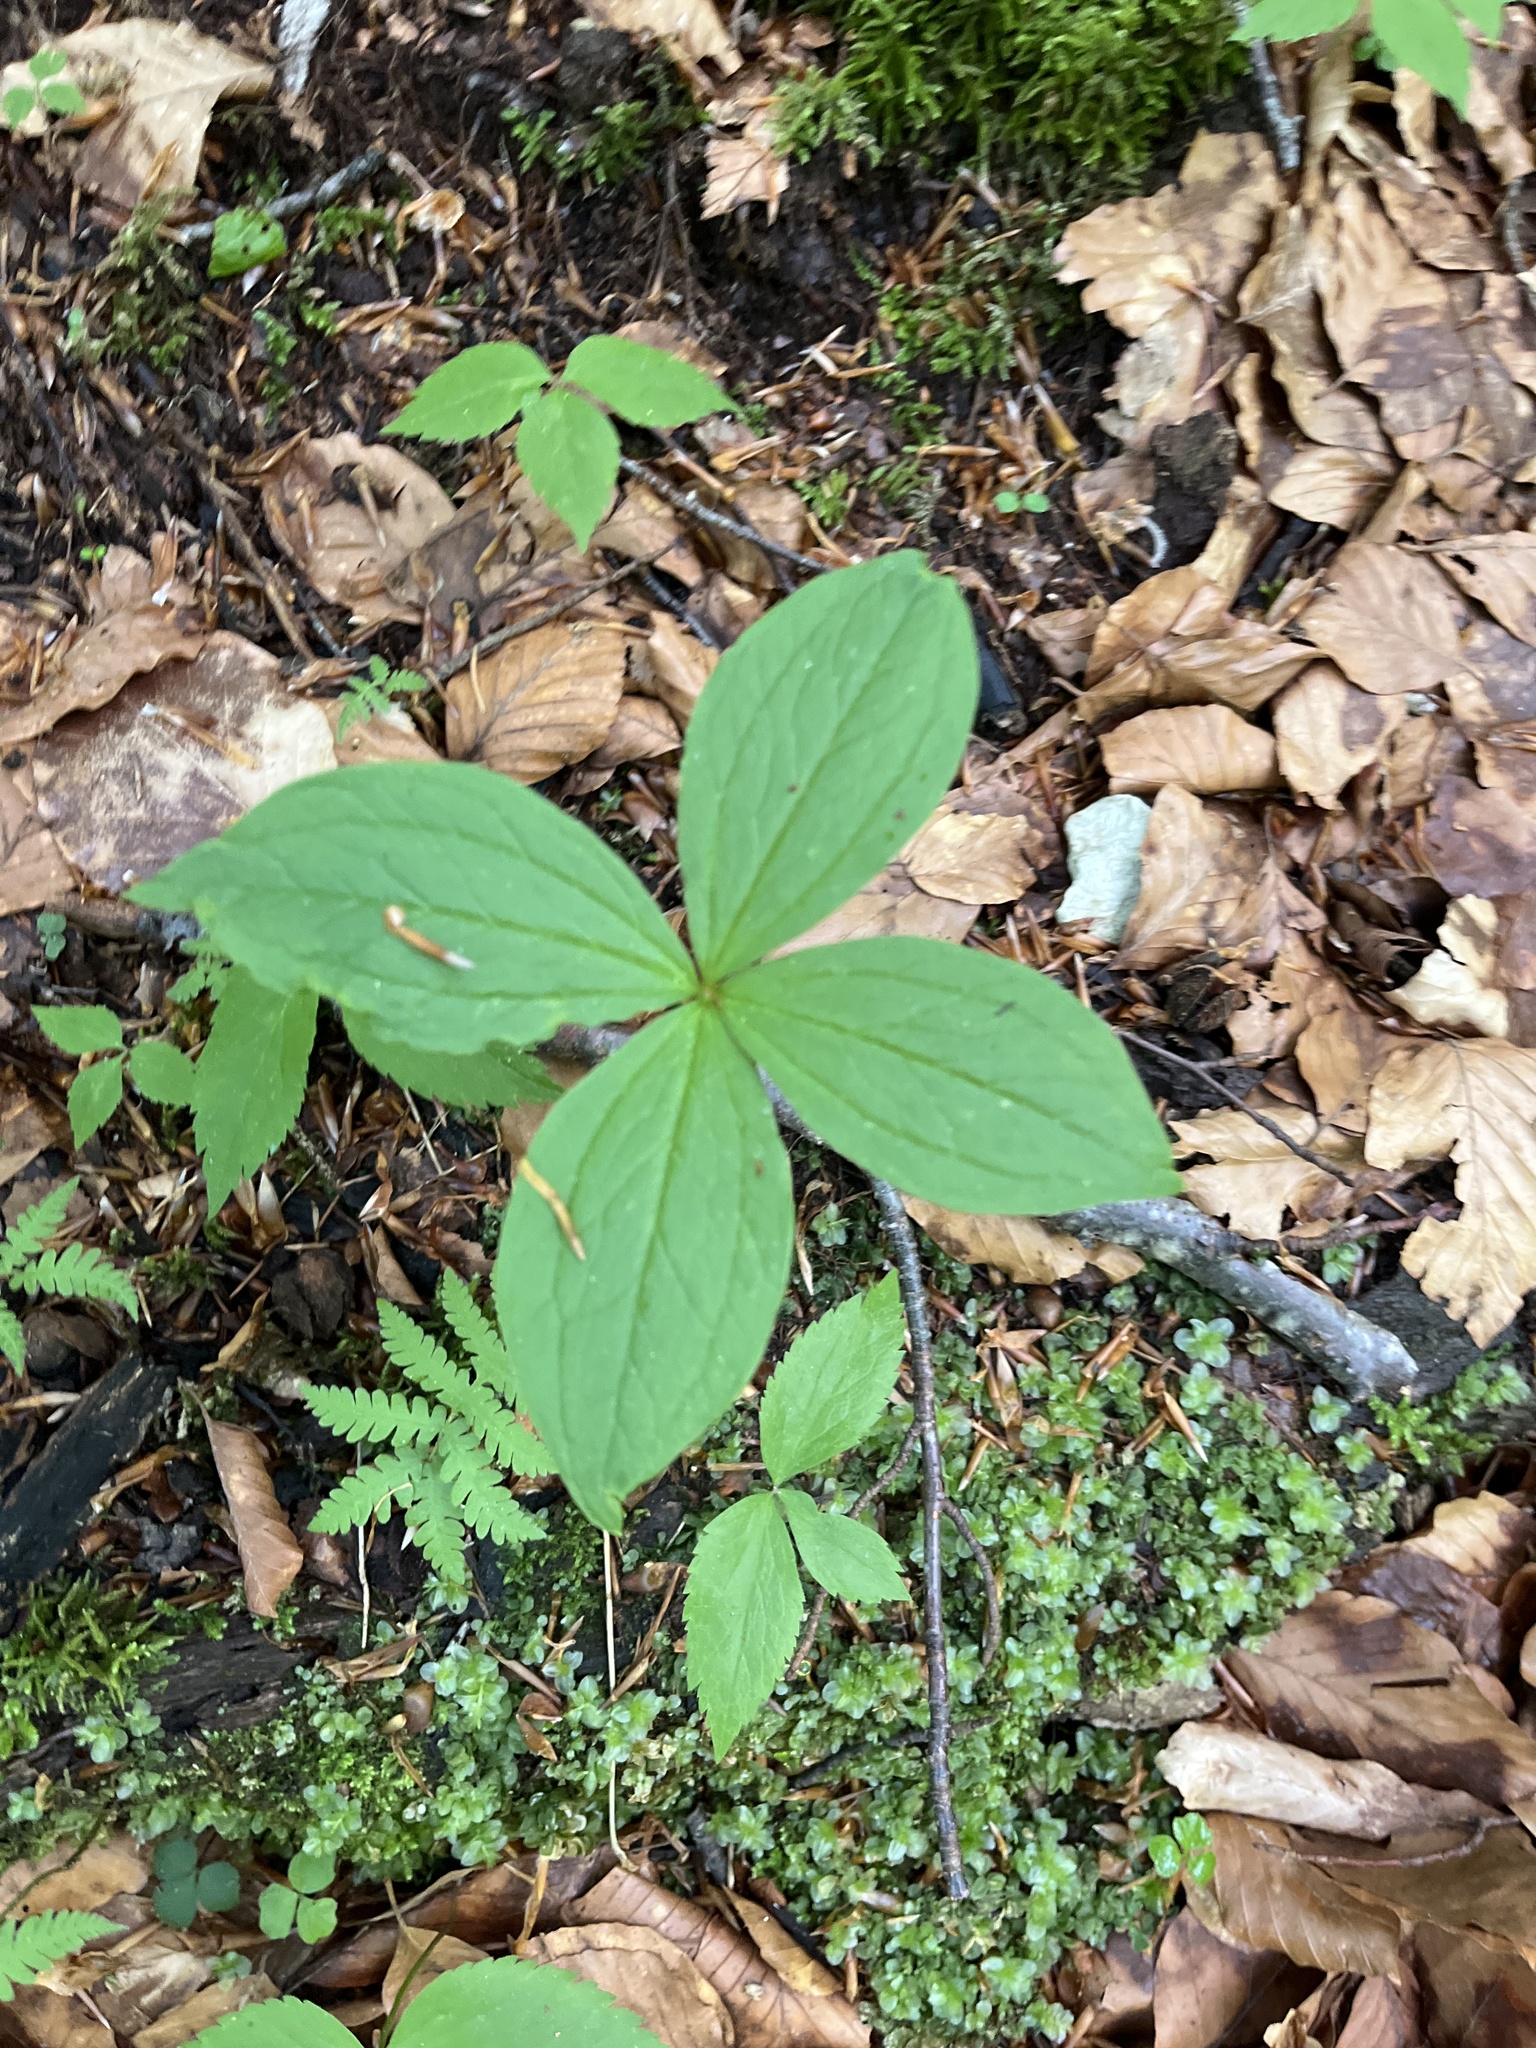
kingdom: Plantae
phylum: Tracheophyta
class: Liliopsida
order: Liliales
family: Melanthiaceae
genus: Paris
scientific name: Paris quadrifolia
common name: Herb-paris
